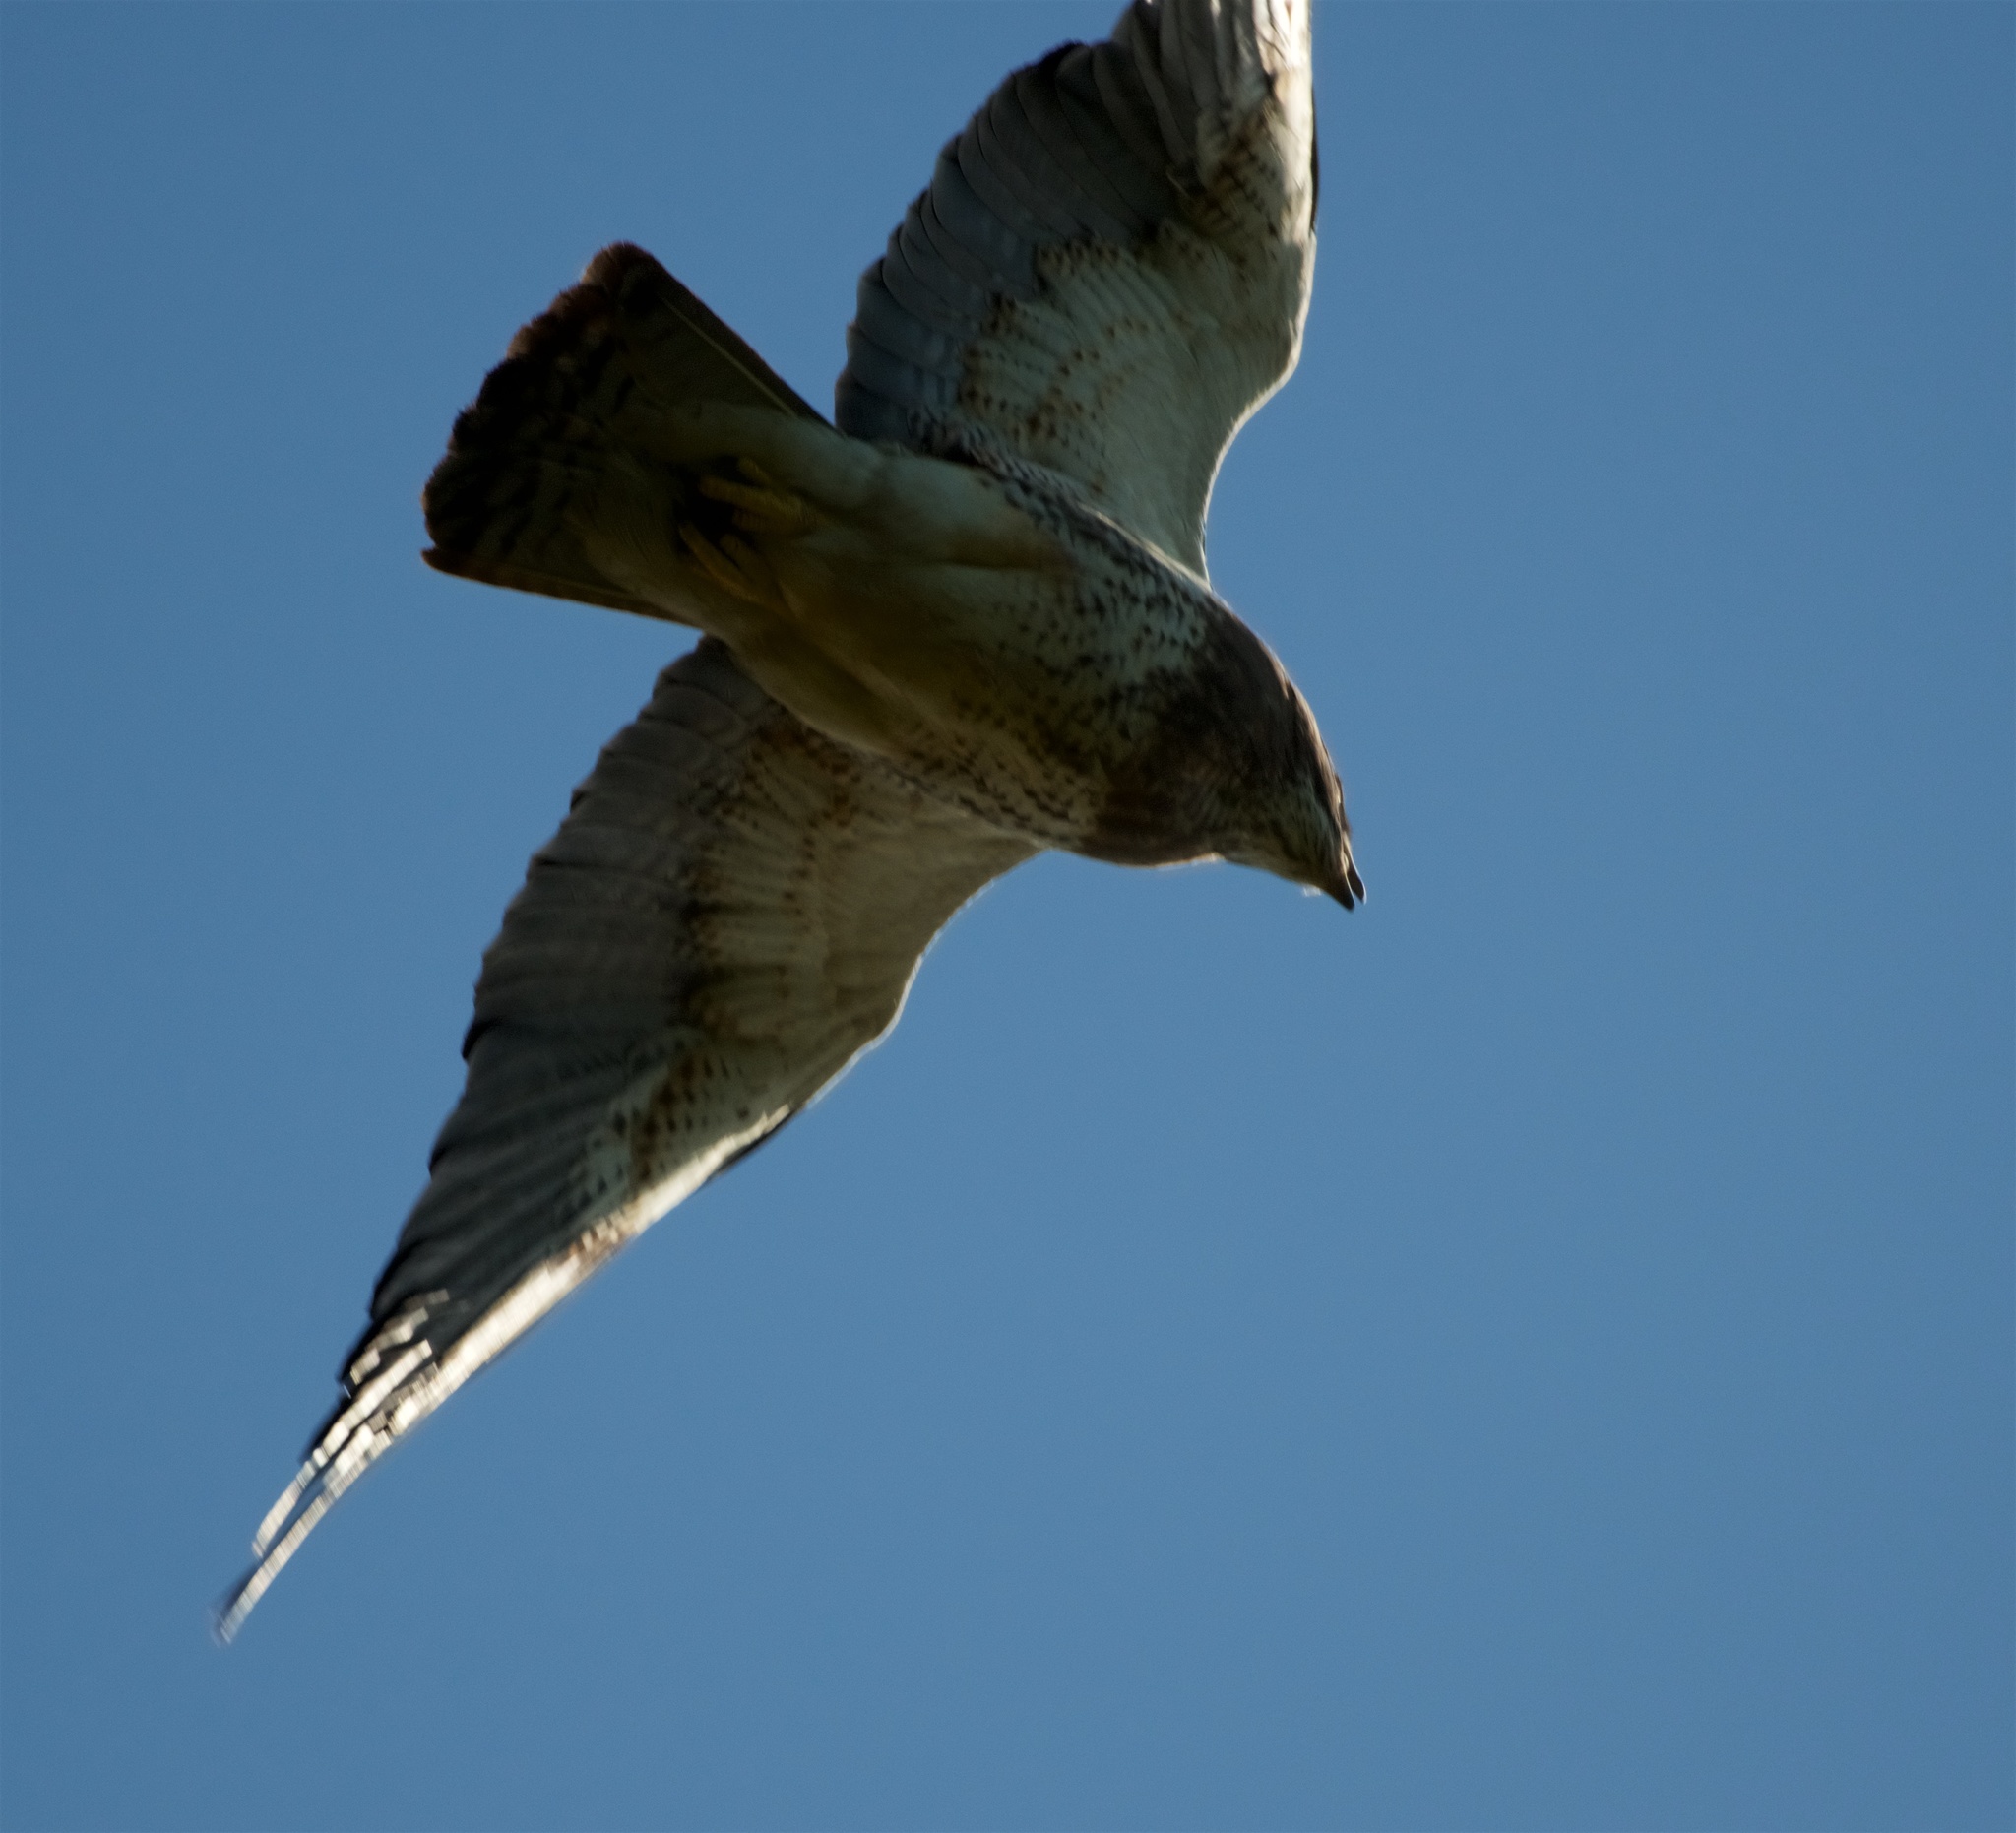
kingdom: Animalia
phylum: Chordata
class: Aves
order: Accipitriformes
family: Accipitridae
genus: Buteo
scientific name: Buteo swainsoni
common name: Swainson's hawk
